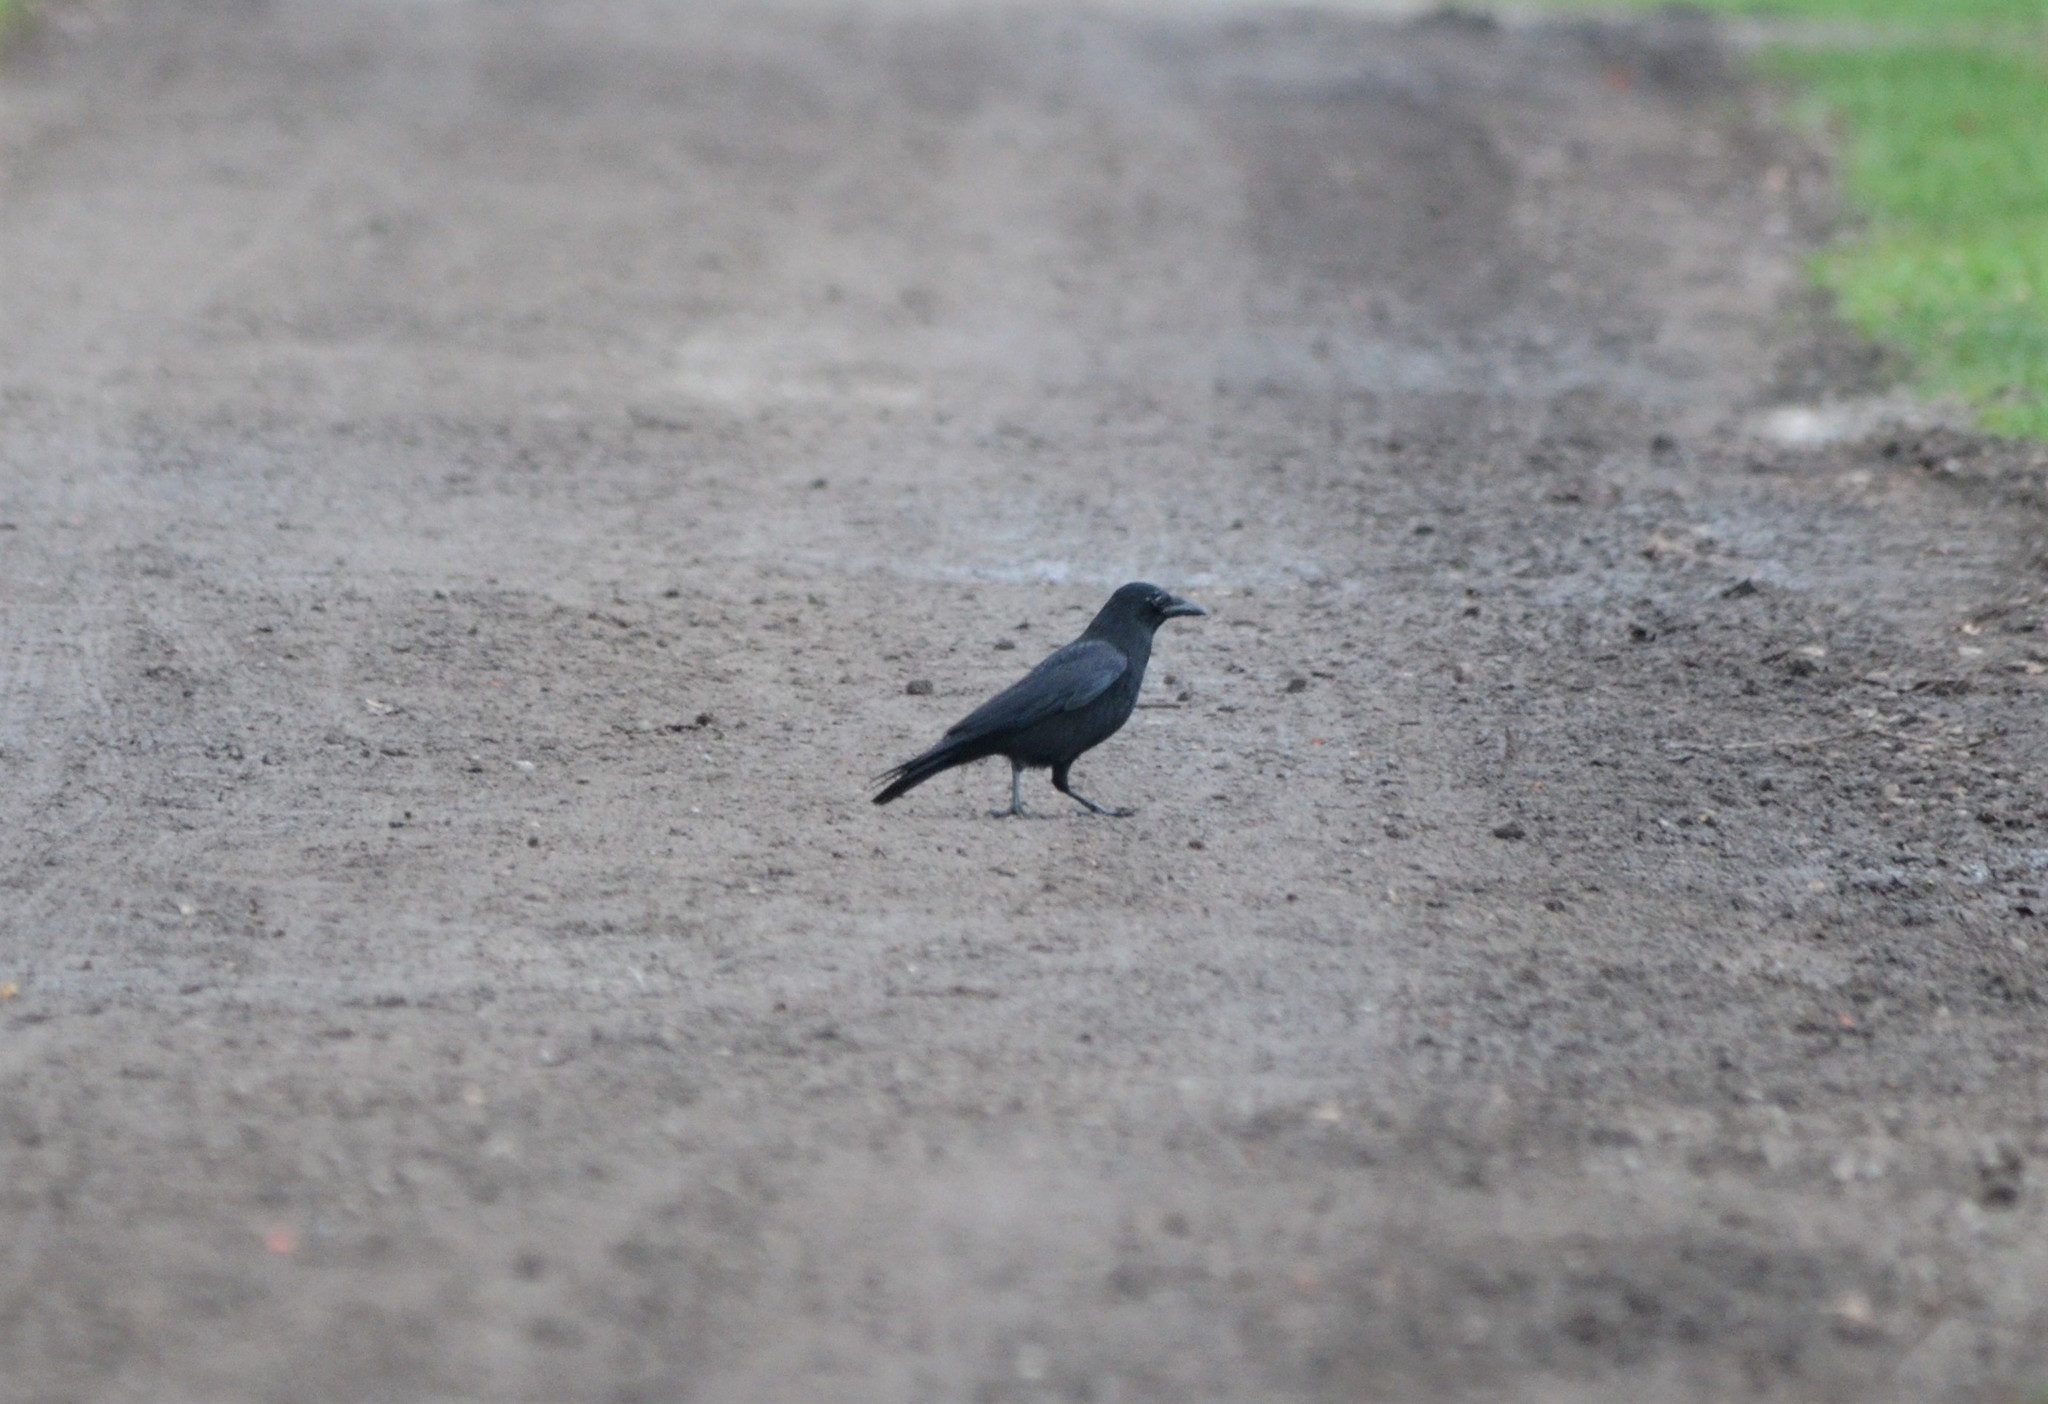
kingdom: Animalia
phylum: Chordata
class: Aves
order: Passeriformes
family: Corvidae
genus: Corvus
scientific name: Corvus corone
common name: Carrion crow
